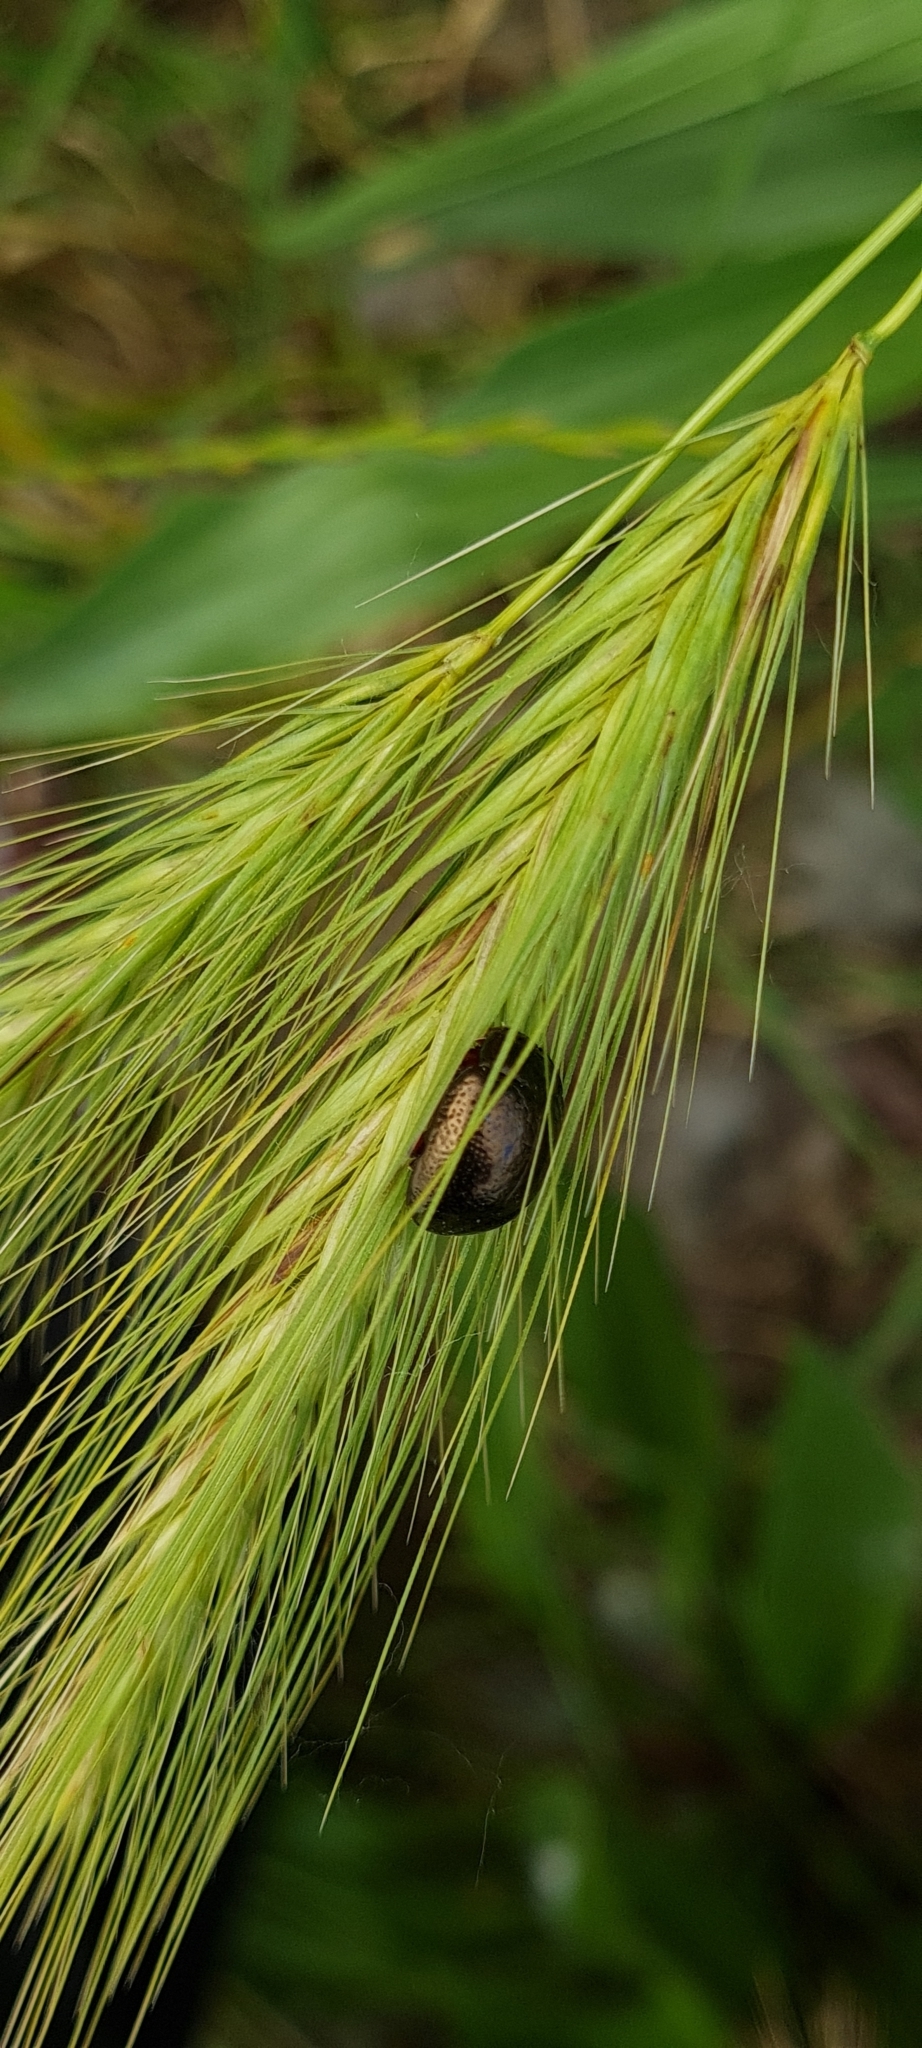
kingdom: Animalia
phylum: Arthropoda
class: Insecta
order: Coleoptera
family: Chrysomelidae
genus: Chrysolina
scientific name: Chrysolina bankii
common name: Leaf beetle
